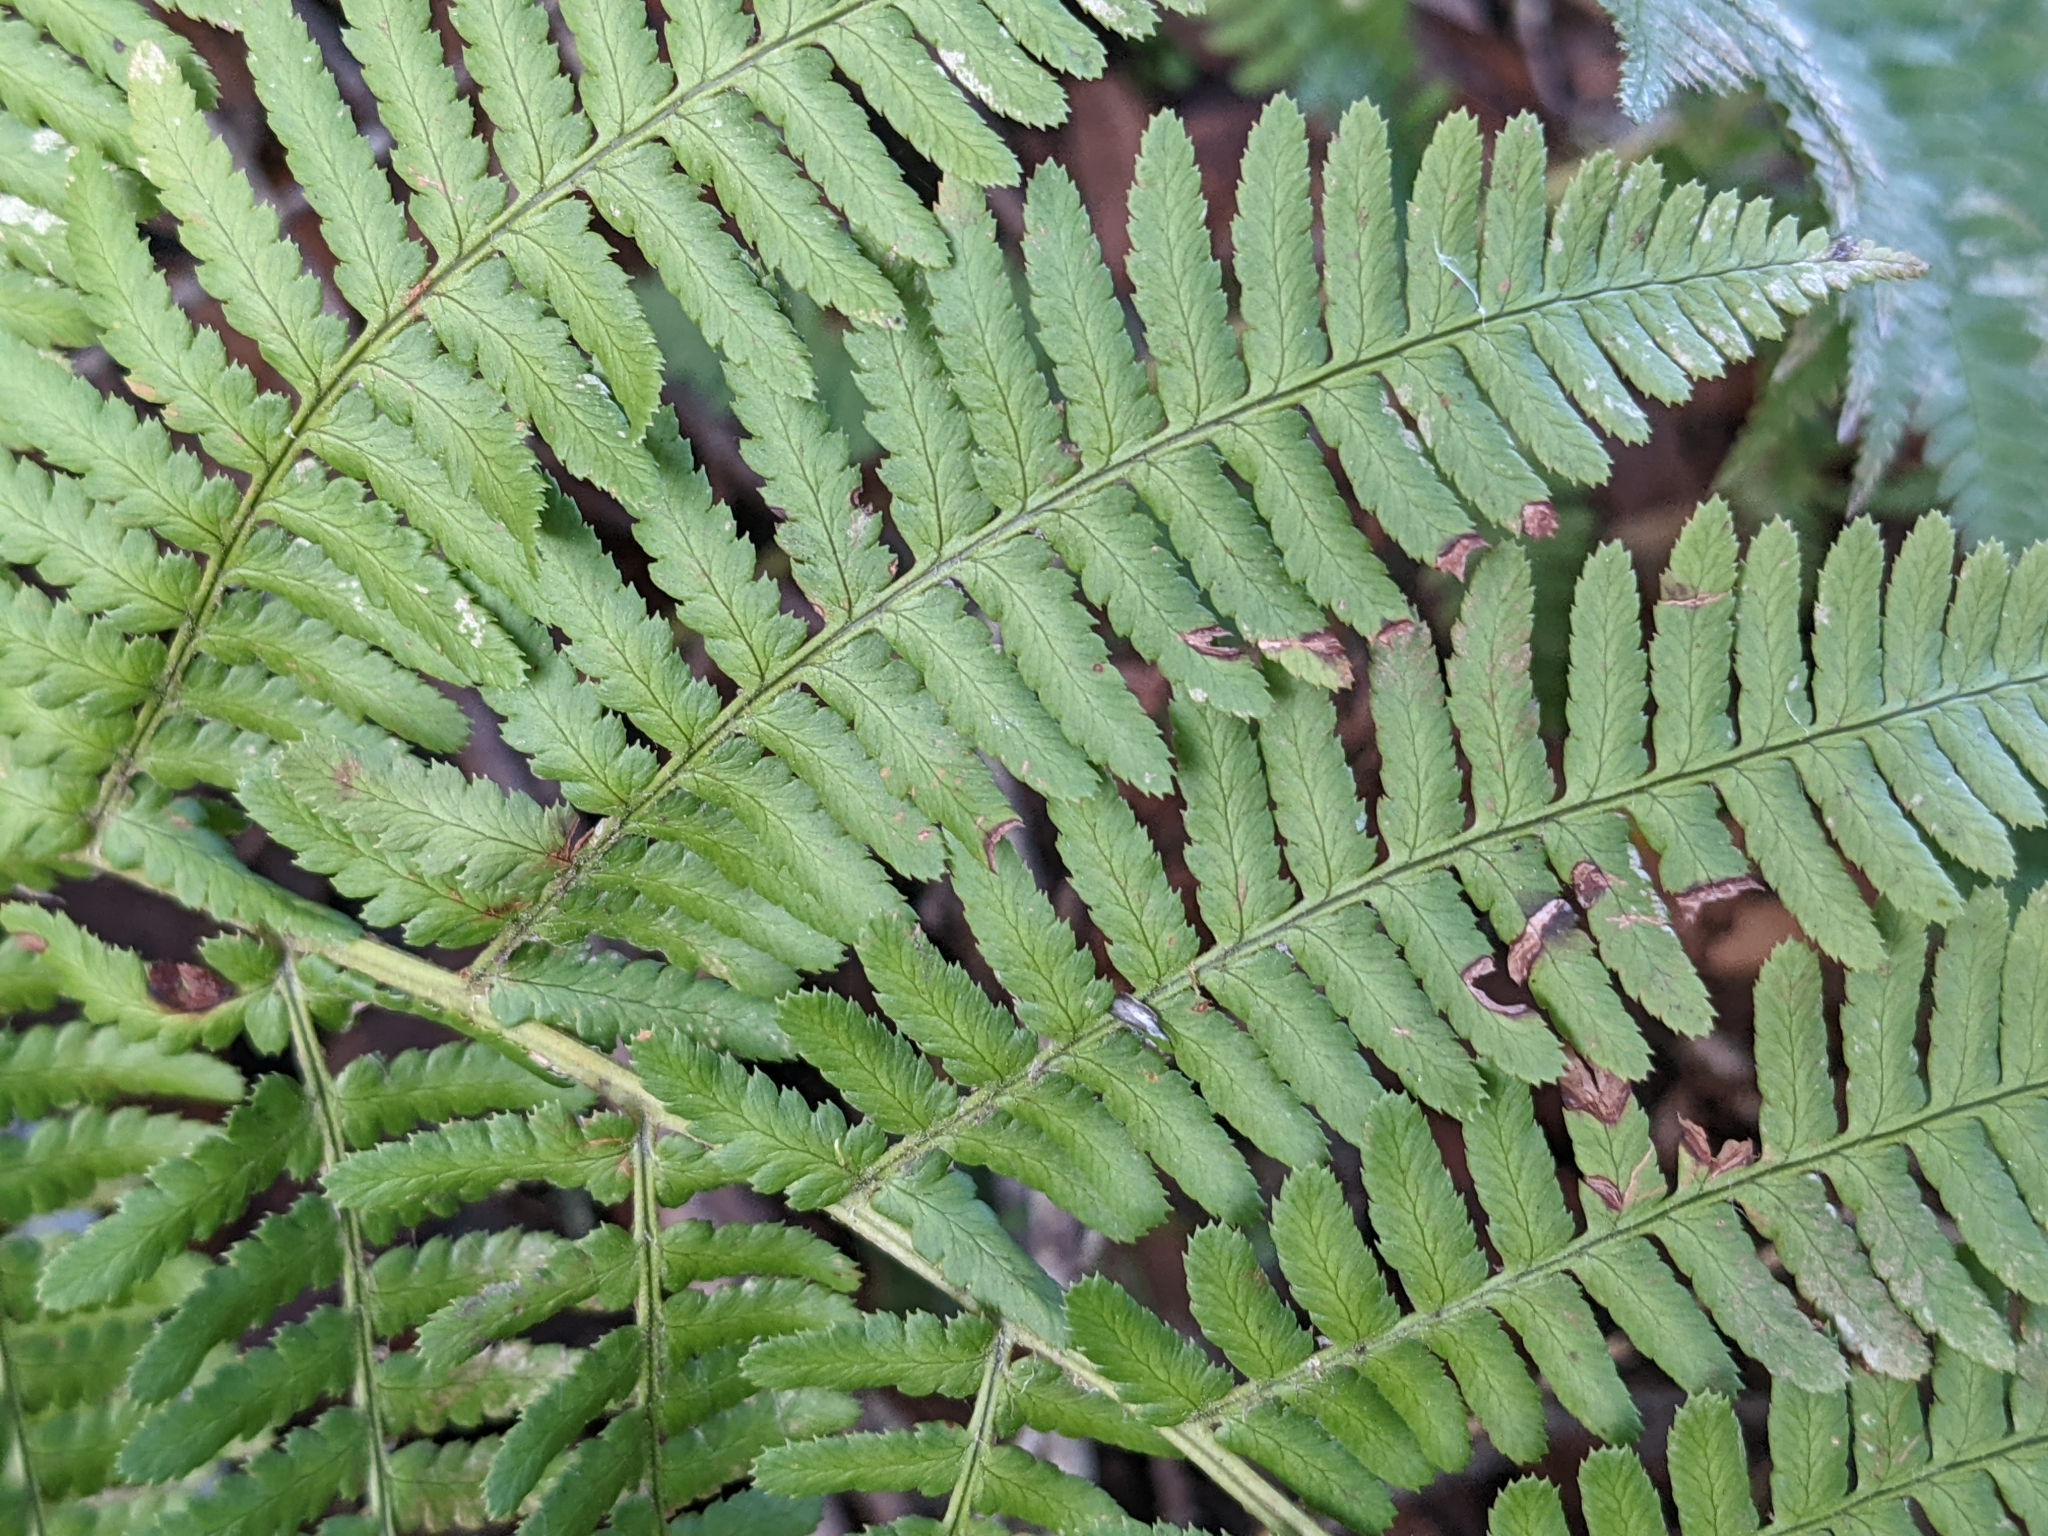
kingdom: Plantae
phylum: Tracheophyta
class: Polypodiopsida
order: Polypodiales
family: Dryopteridaceae
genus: Dryopteris
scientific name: Dryopteris arguta
